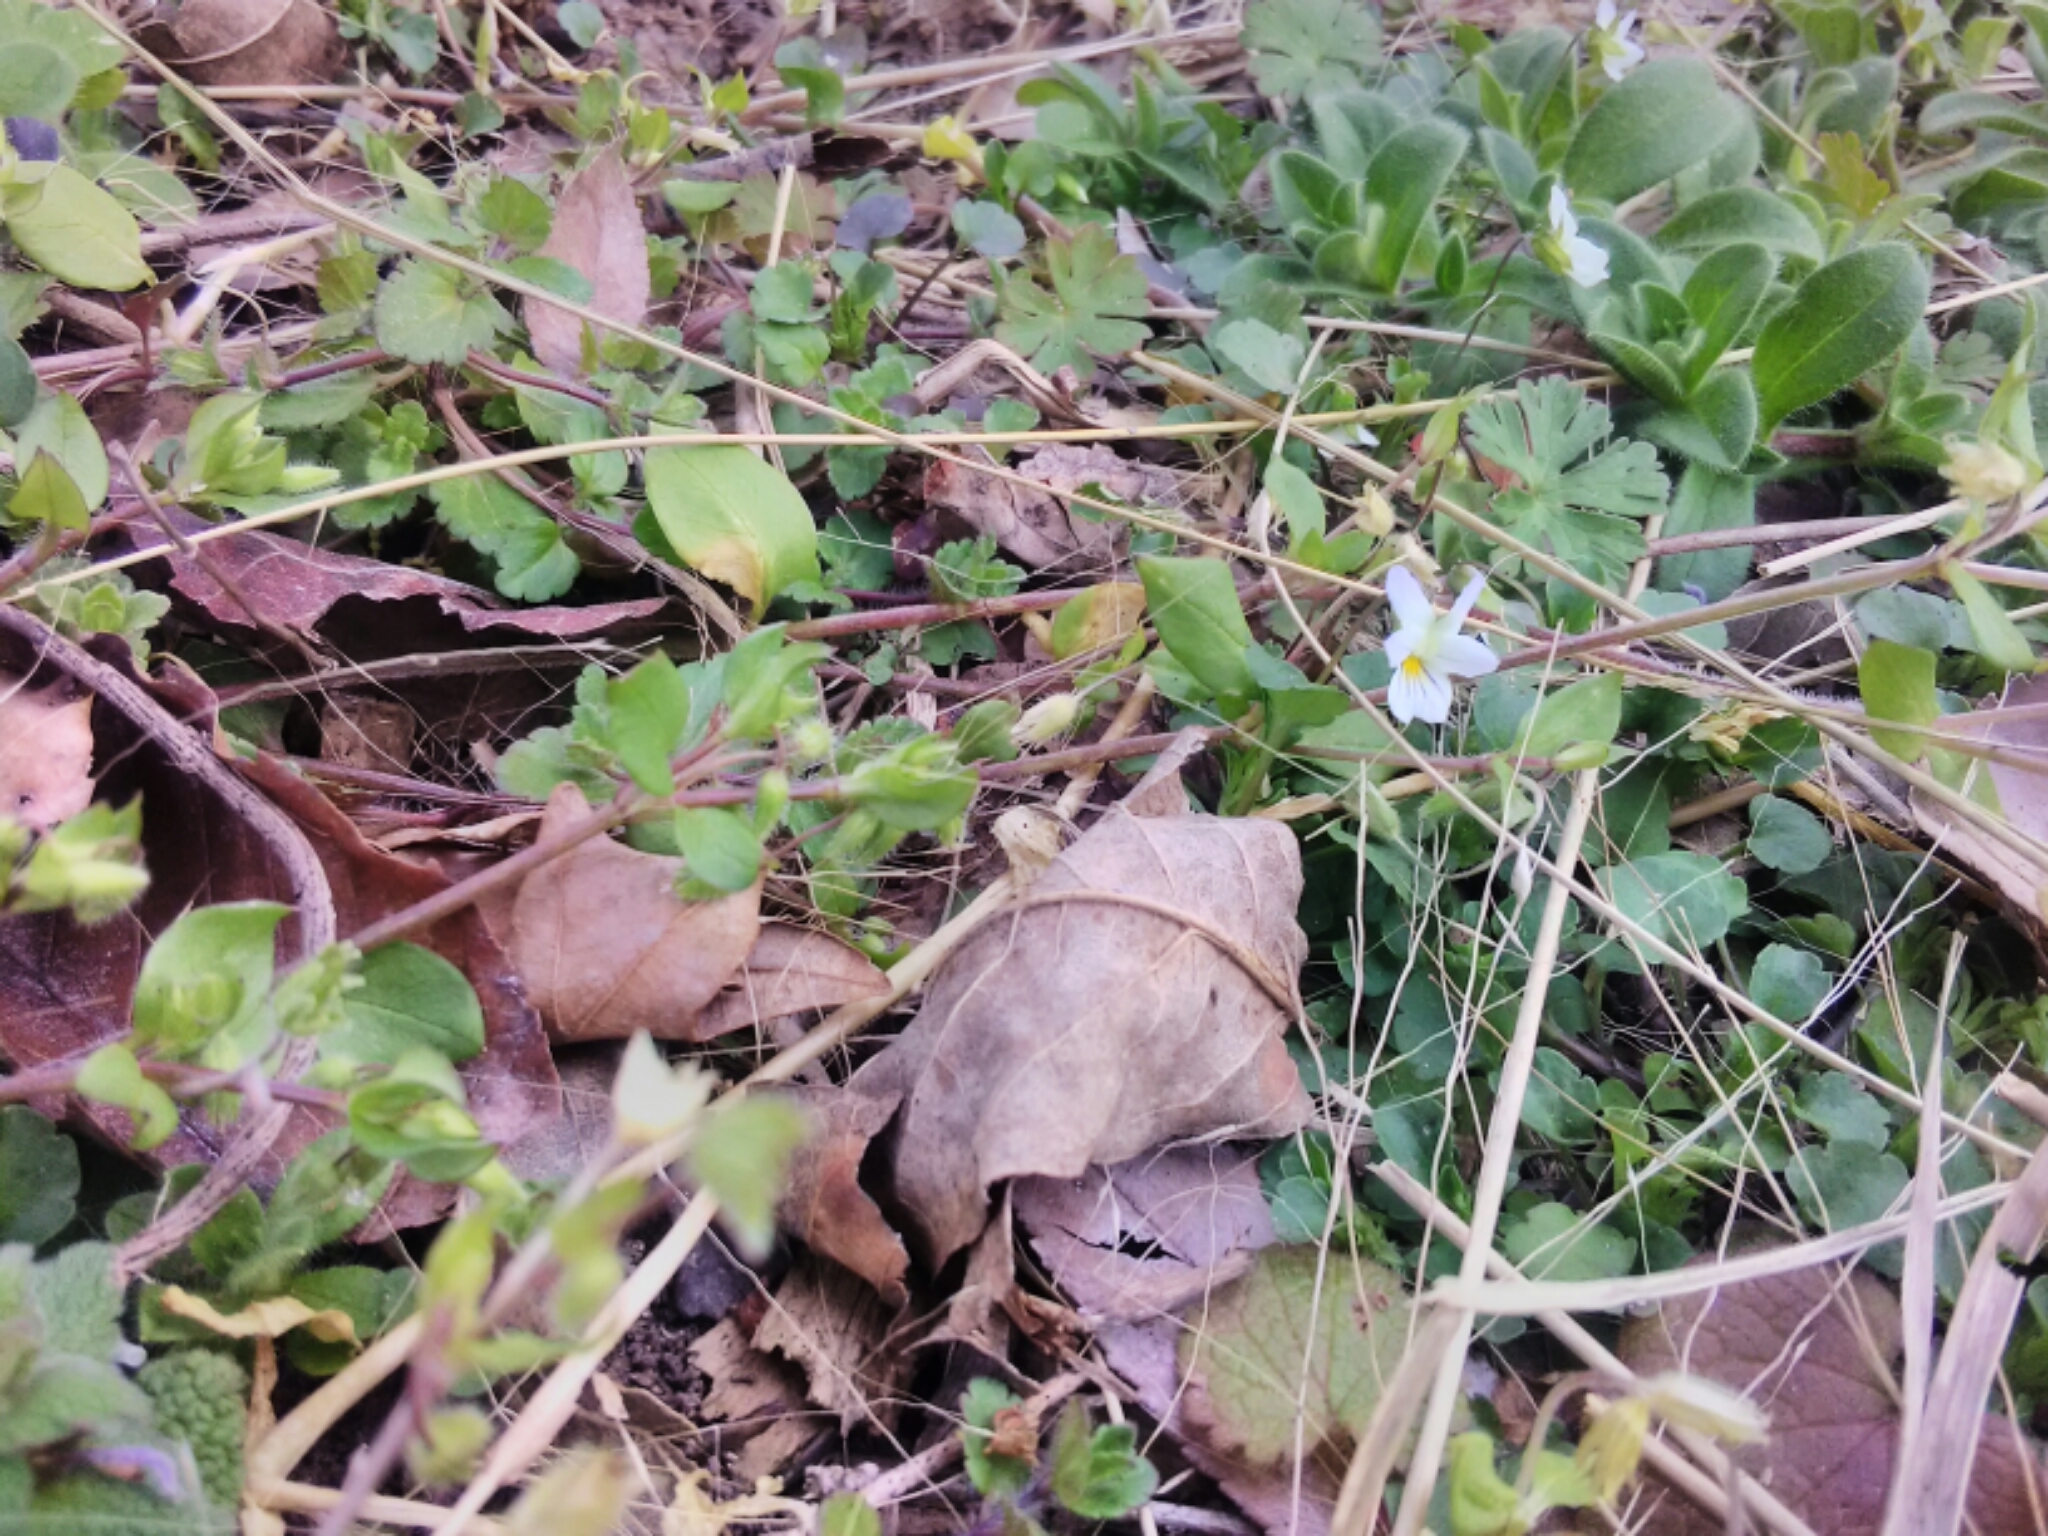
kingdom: Plantae
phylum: Tracheophyta
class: Magnoliopsida
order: Malpighiales
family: Violaceae
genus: Viola
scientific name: Viola rafinesquei
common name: American field pansy
